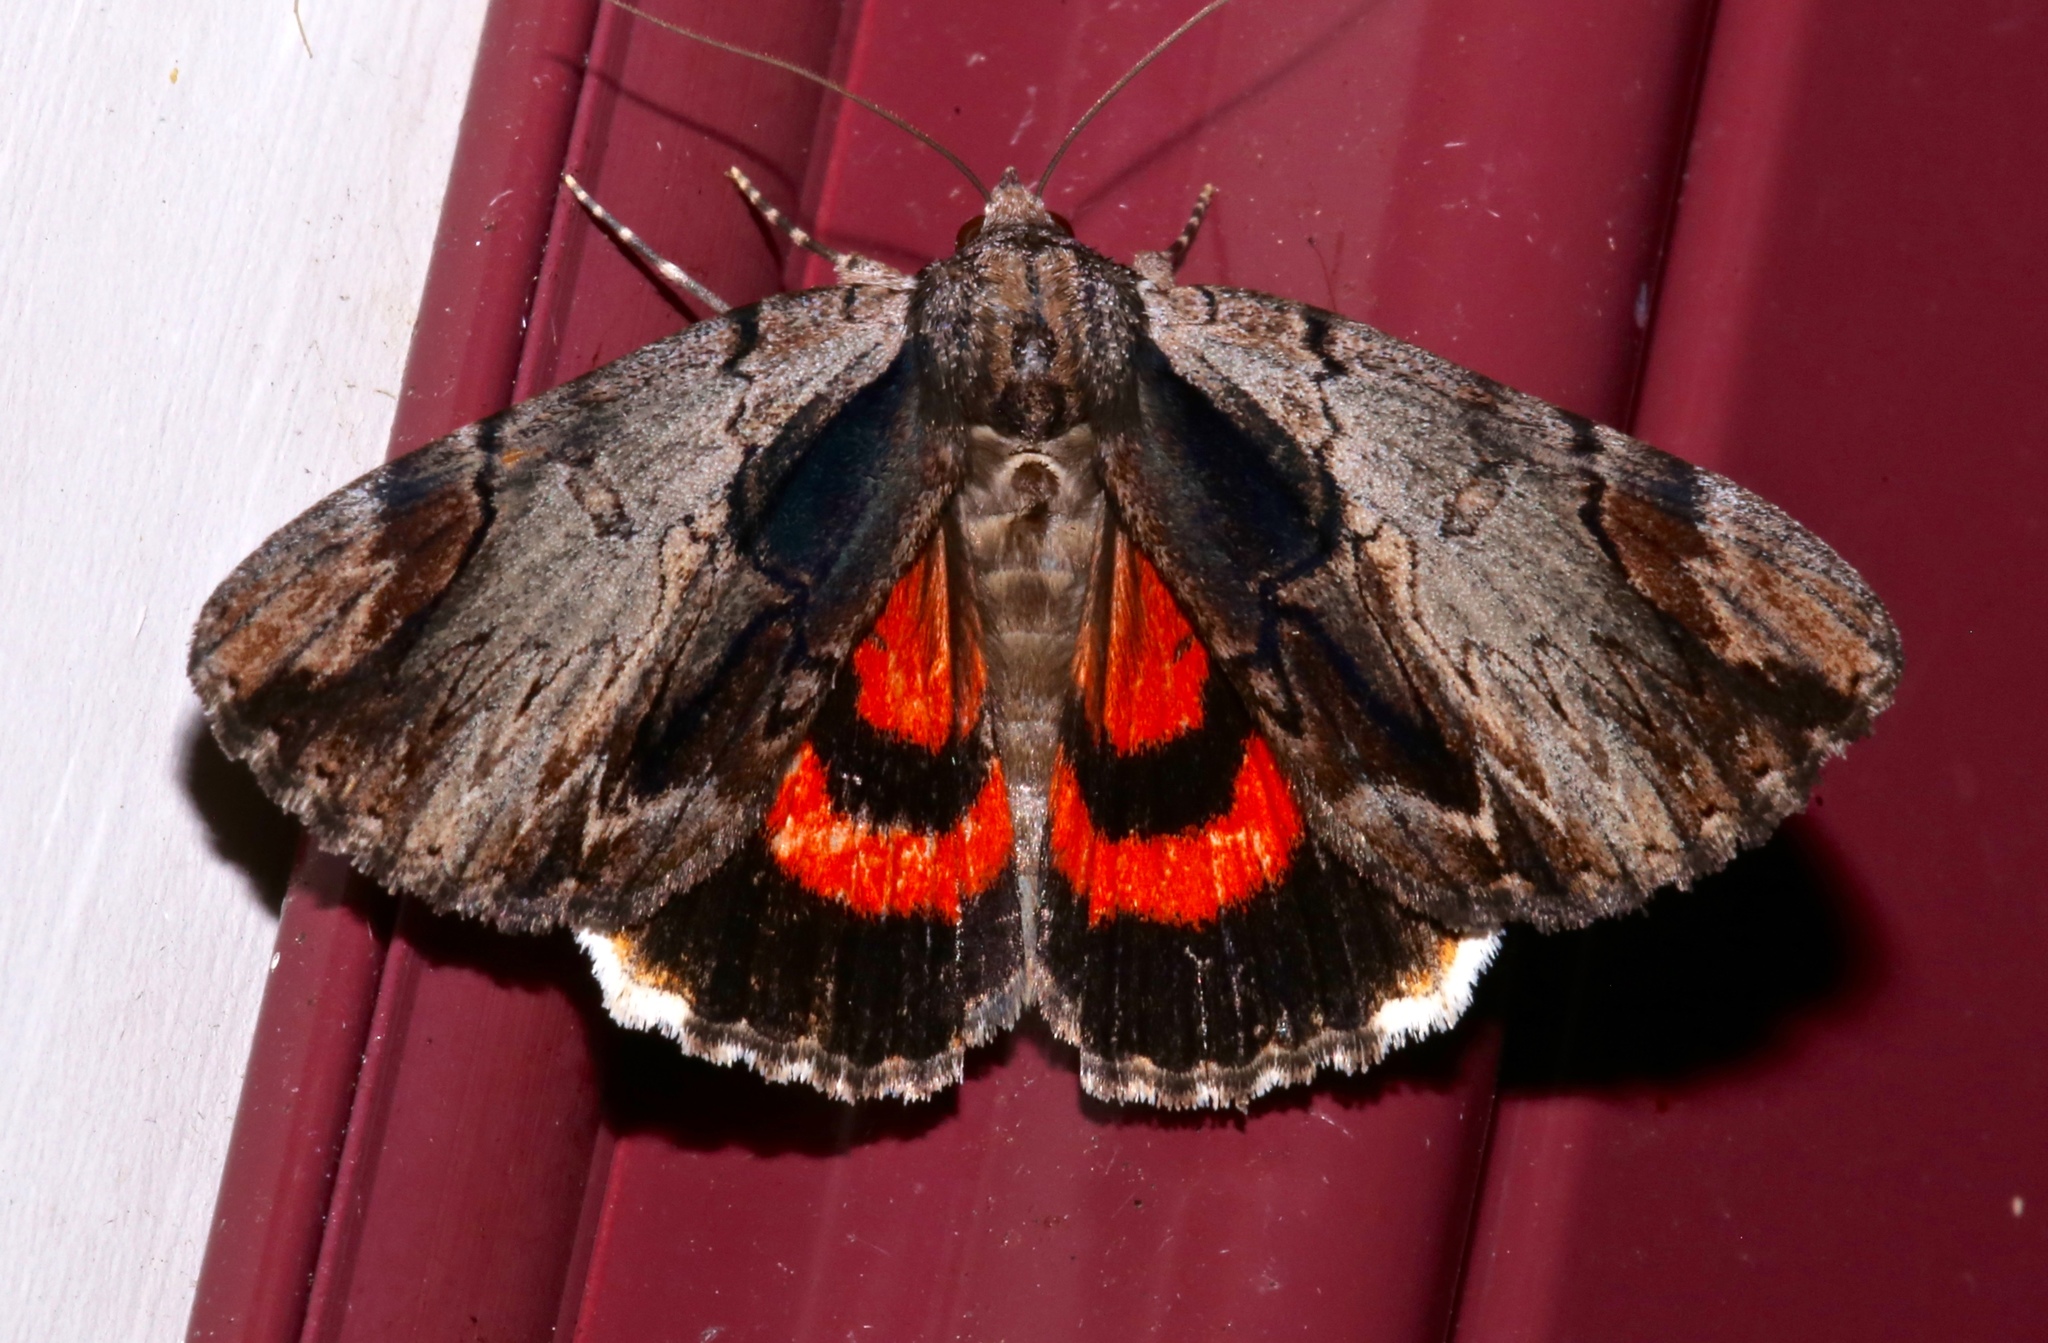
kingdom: Animalia
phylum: Arthropoda
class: Insecta
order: Lepidoptera
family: Erebidae
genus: Catocala
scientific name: Catocala ultronia
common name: Ultronia underwing
